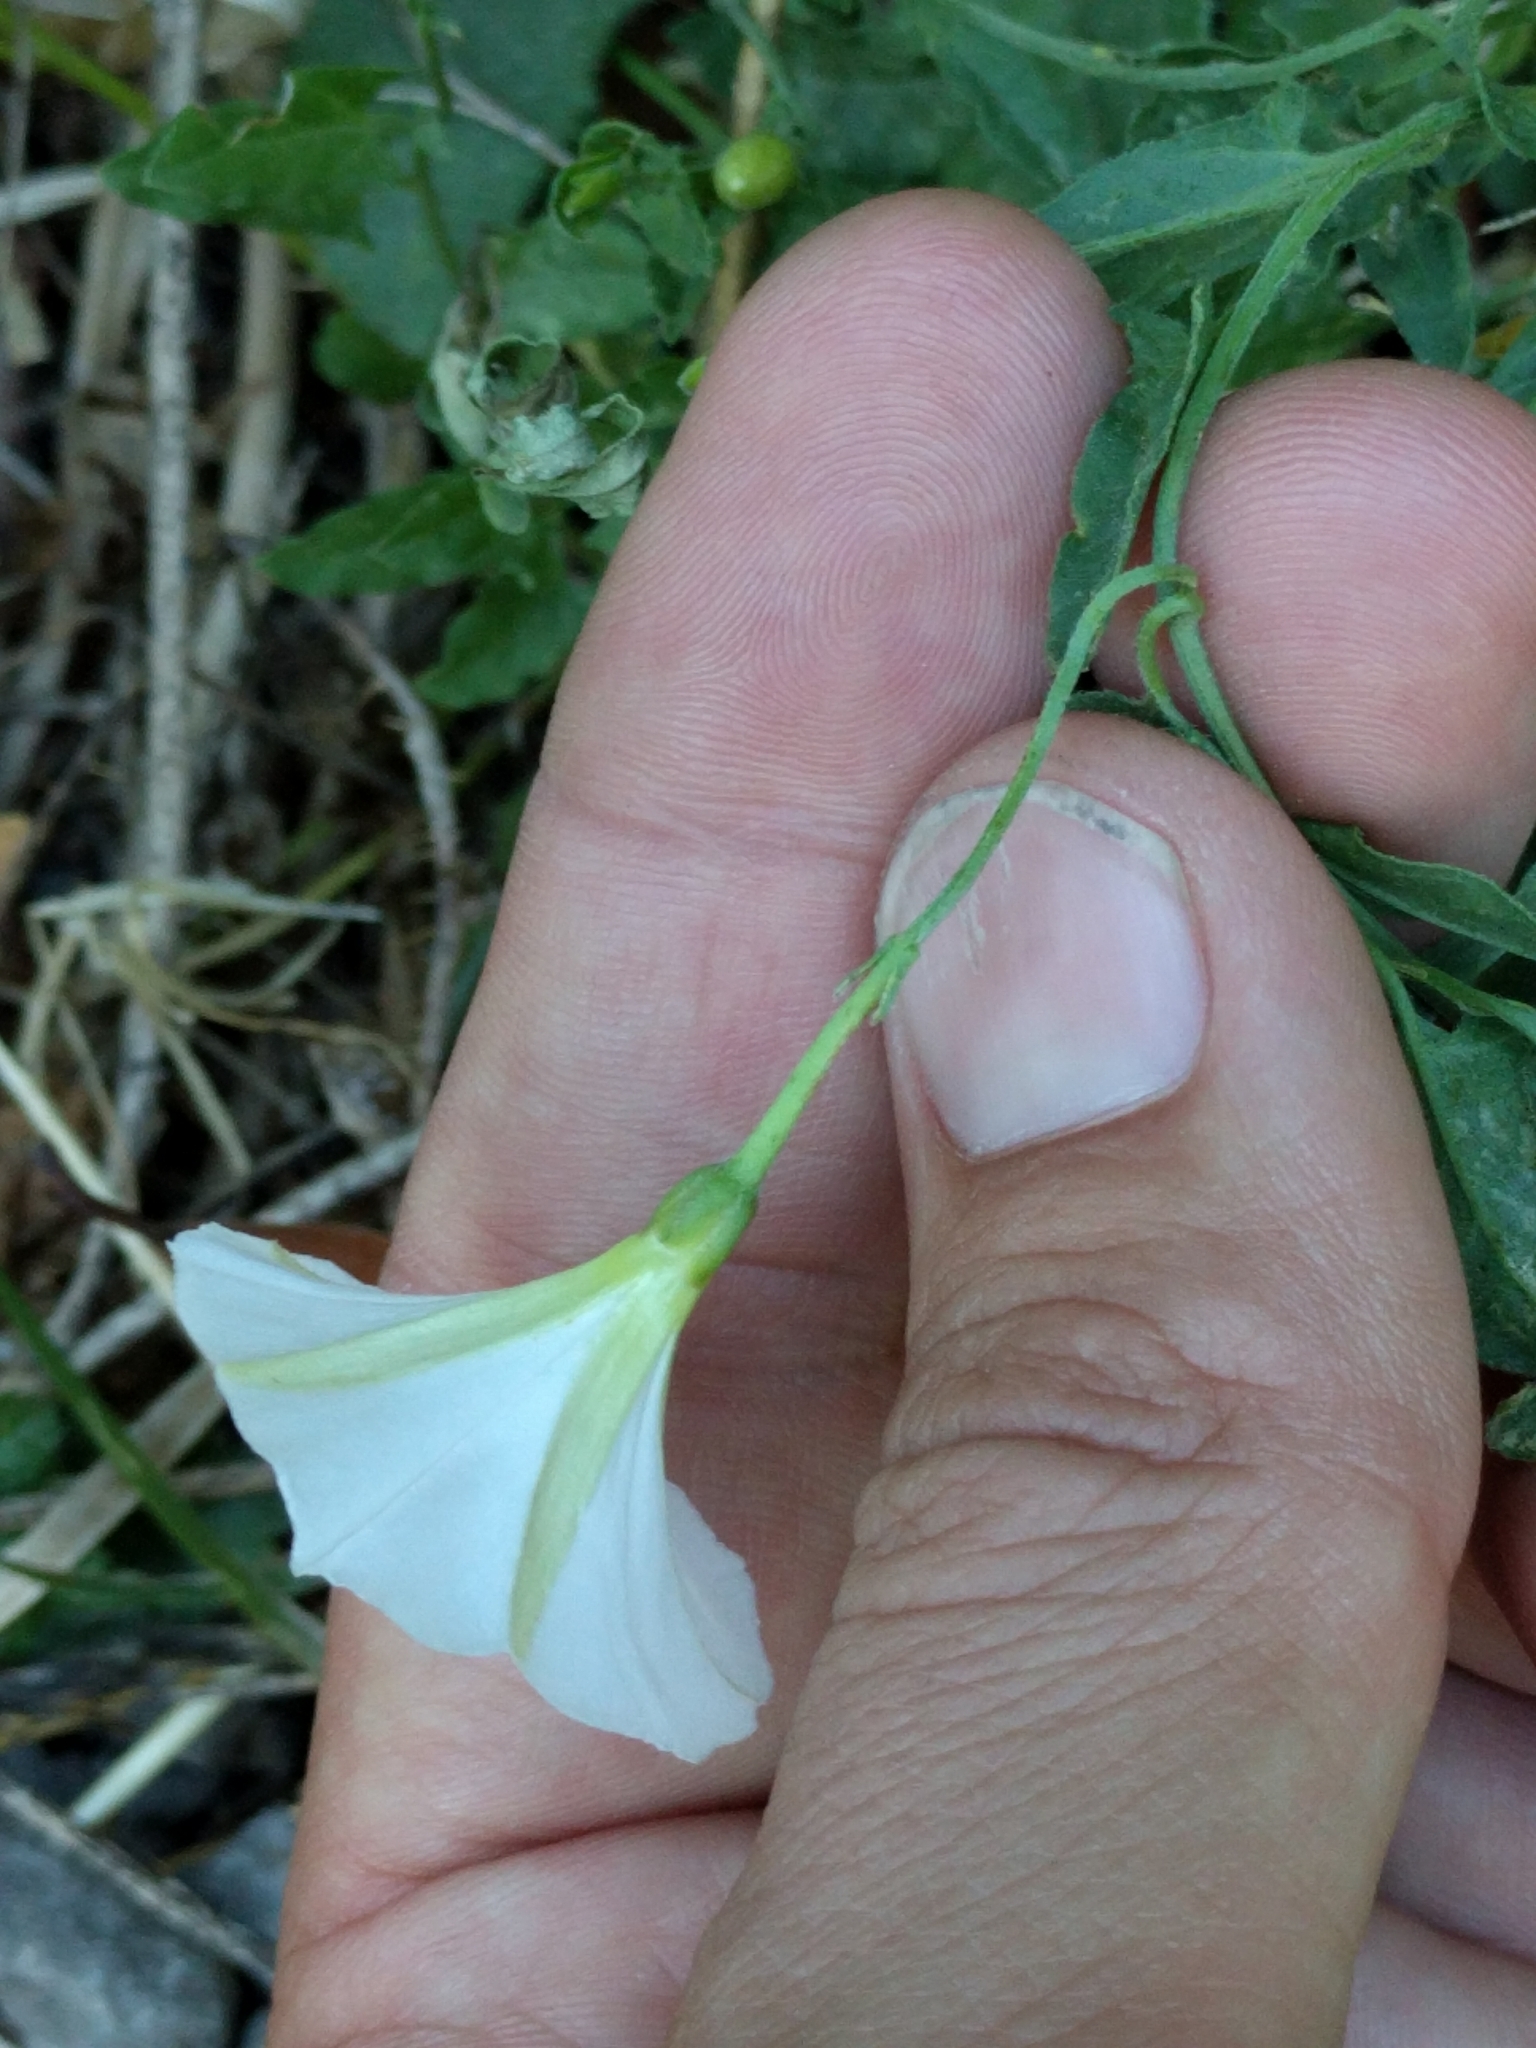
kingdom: Plantae
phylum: Tracheophyta
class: Magnoliopsida
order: Solanales
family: Convolvulaceae
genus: Convolvulus
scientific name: Convolvulus arvensis
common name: Field bindweed
